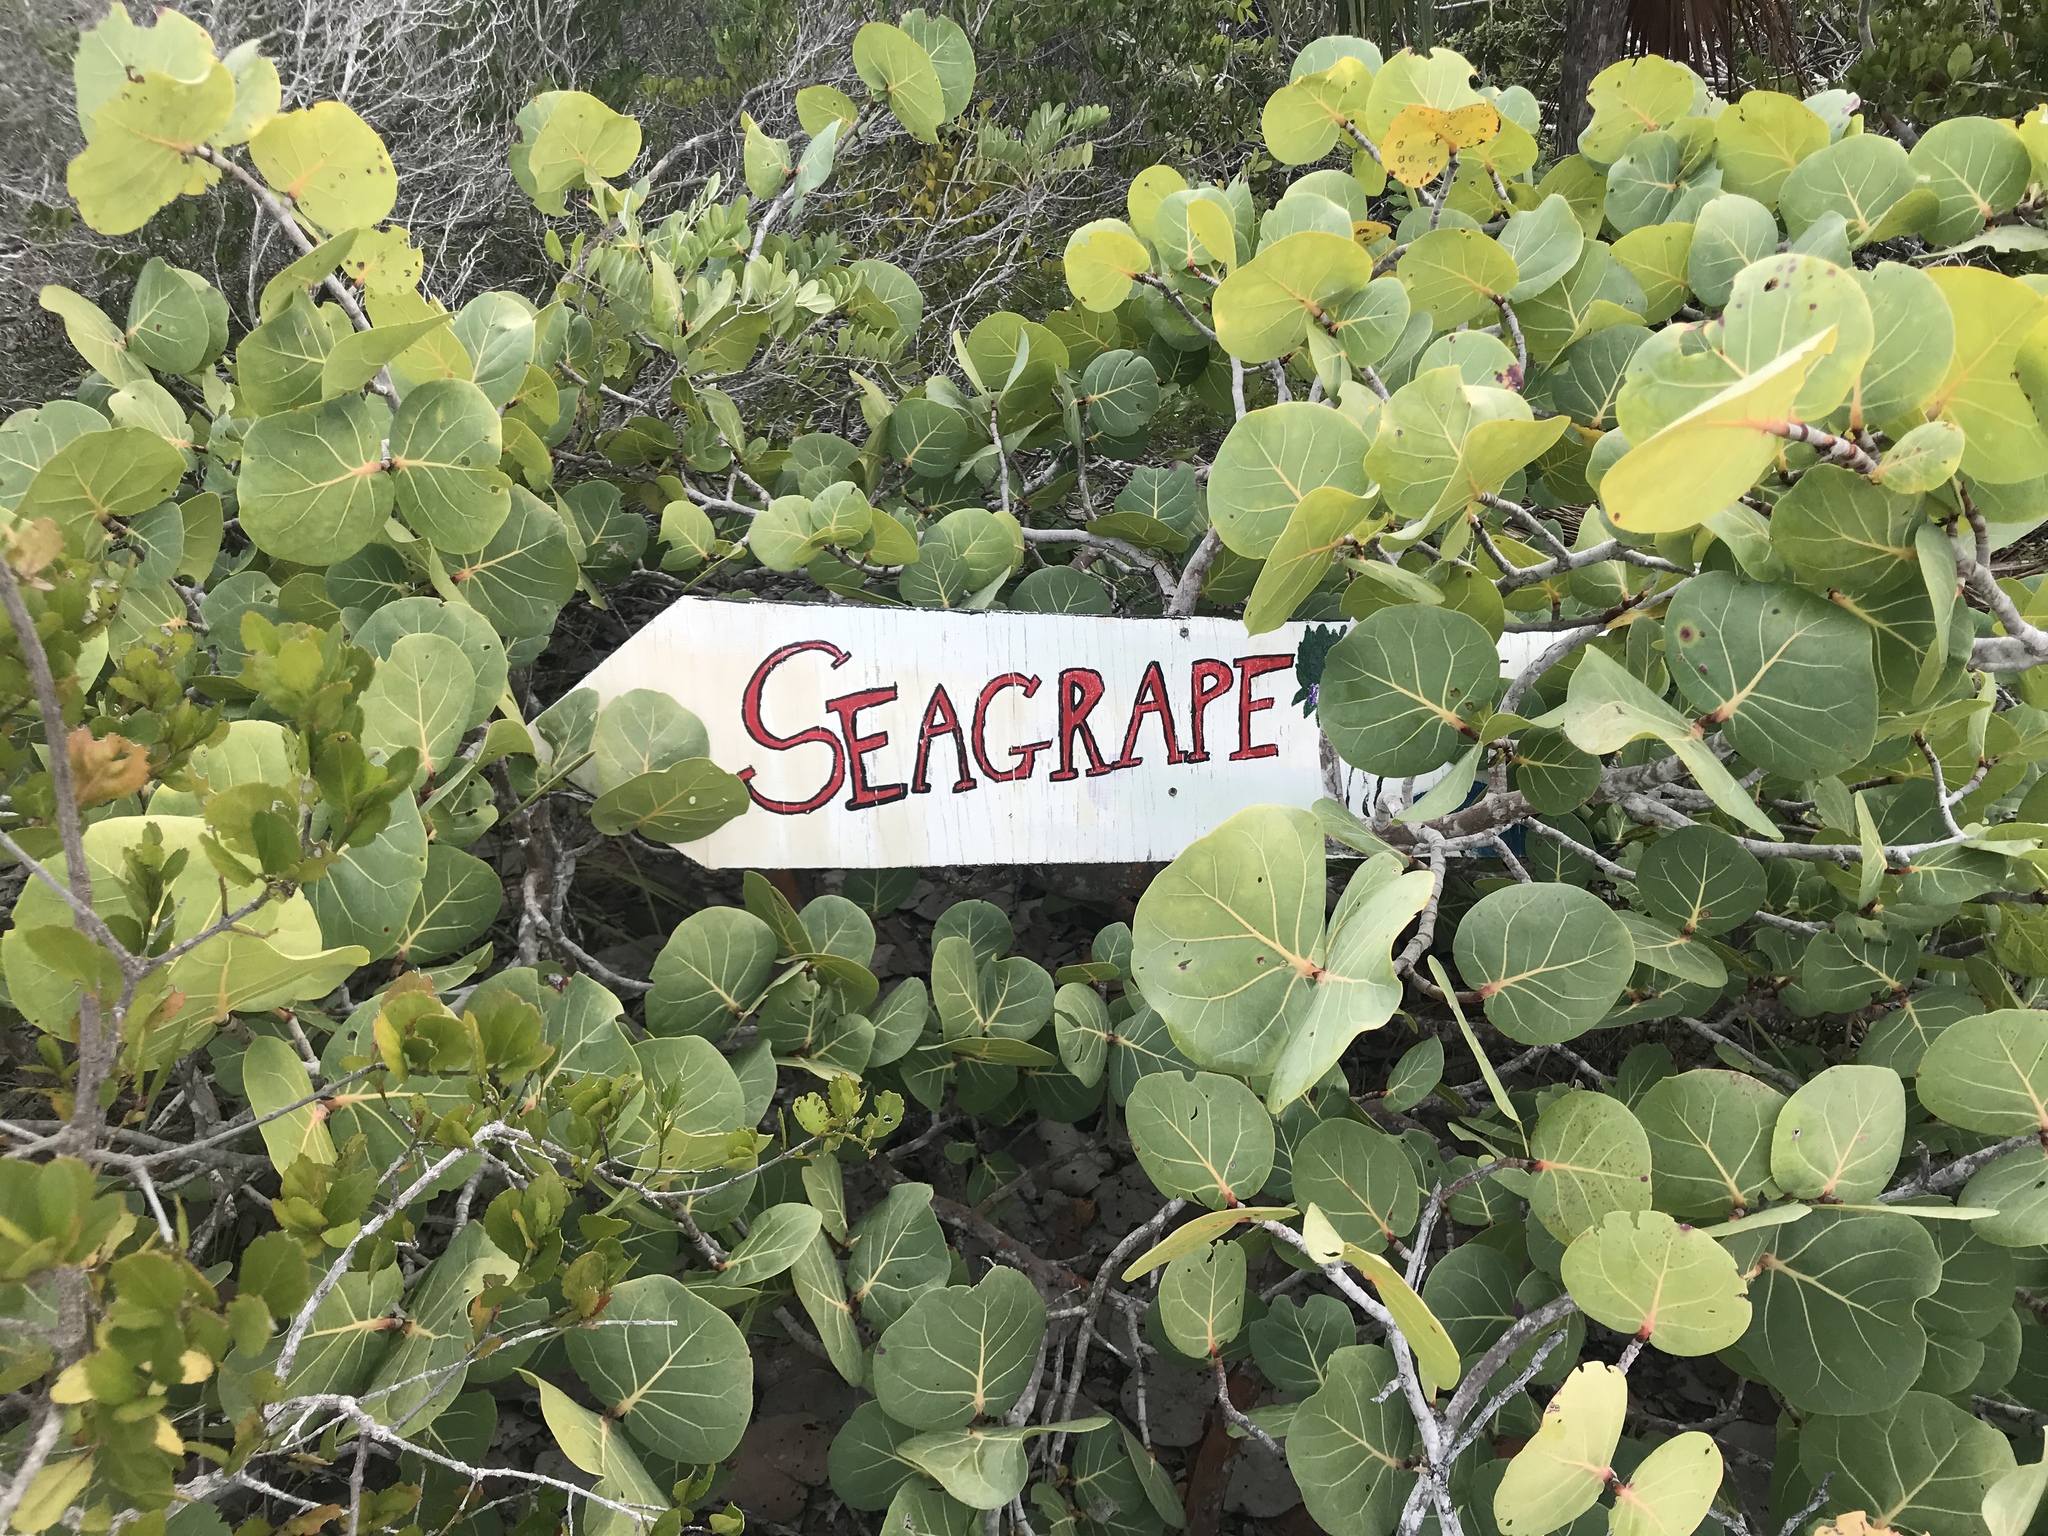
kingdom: Plantae
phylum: Tracheophyta
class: Magnoliopsida
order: Caryophyllales
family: Polygonaceae
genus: Coccoloba
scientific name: Coccoloba uvifera
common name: Seagrape
